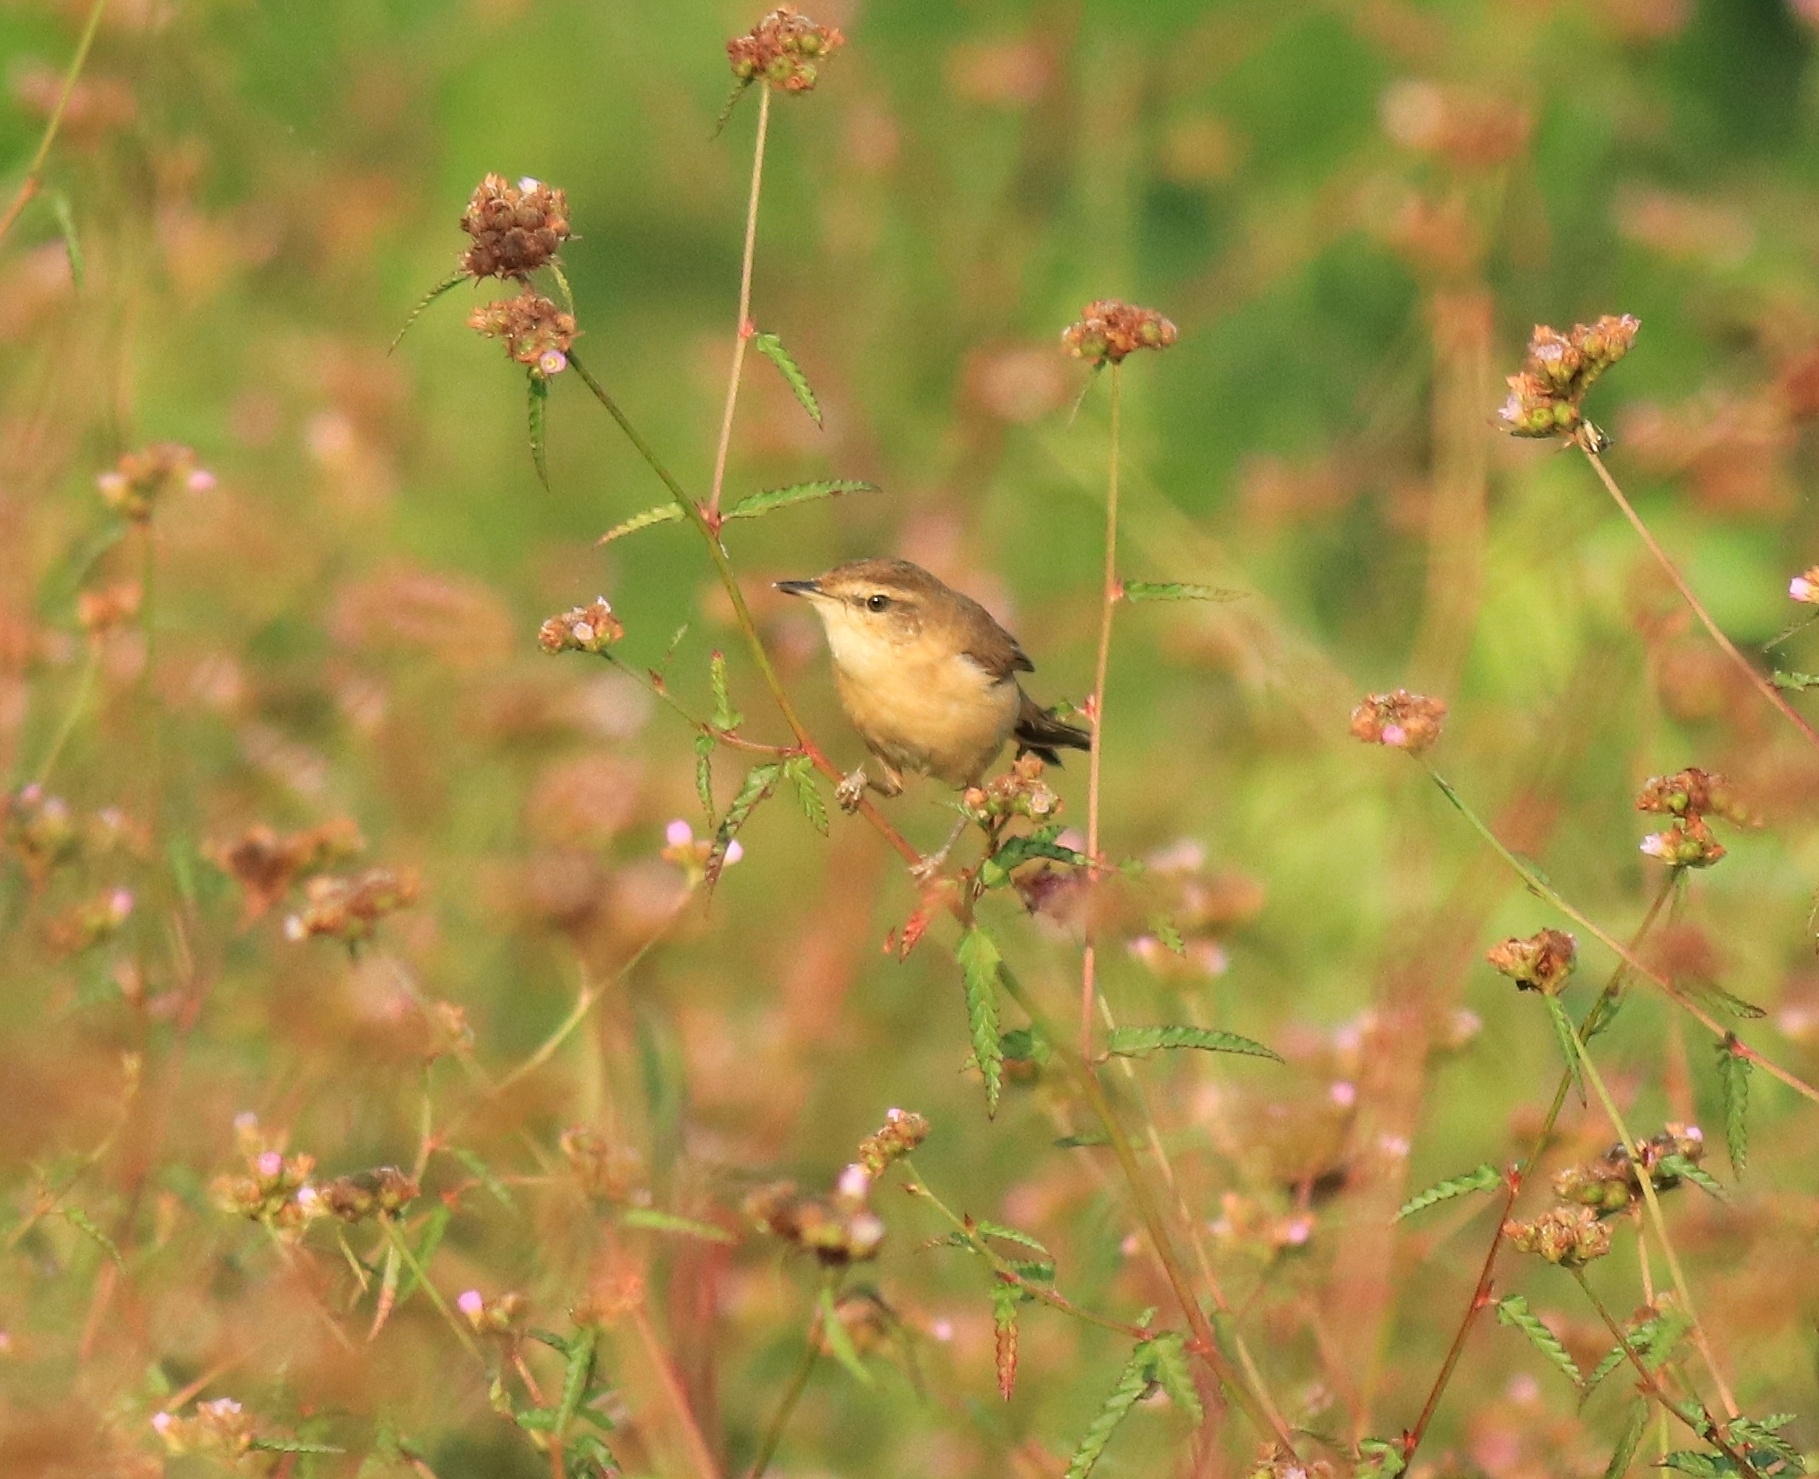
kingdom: Animalia
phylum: Chordata
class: Aves
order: Passeriformes
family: Acrocephalidae
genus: Acrocephalus
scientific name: Acrocephalus agricola
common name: Paddyfield warbler
